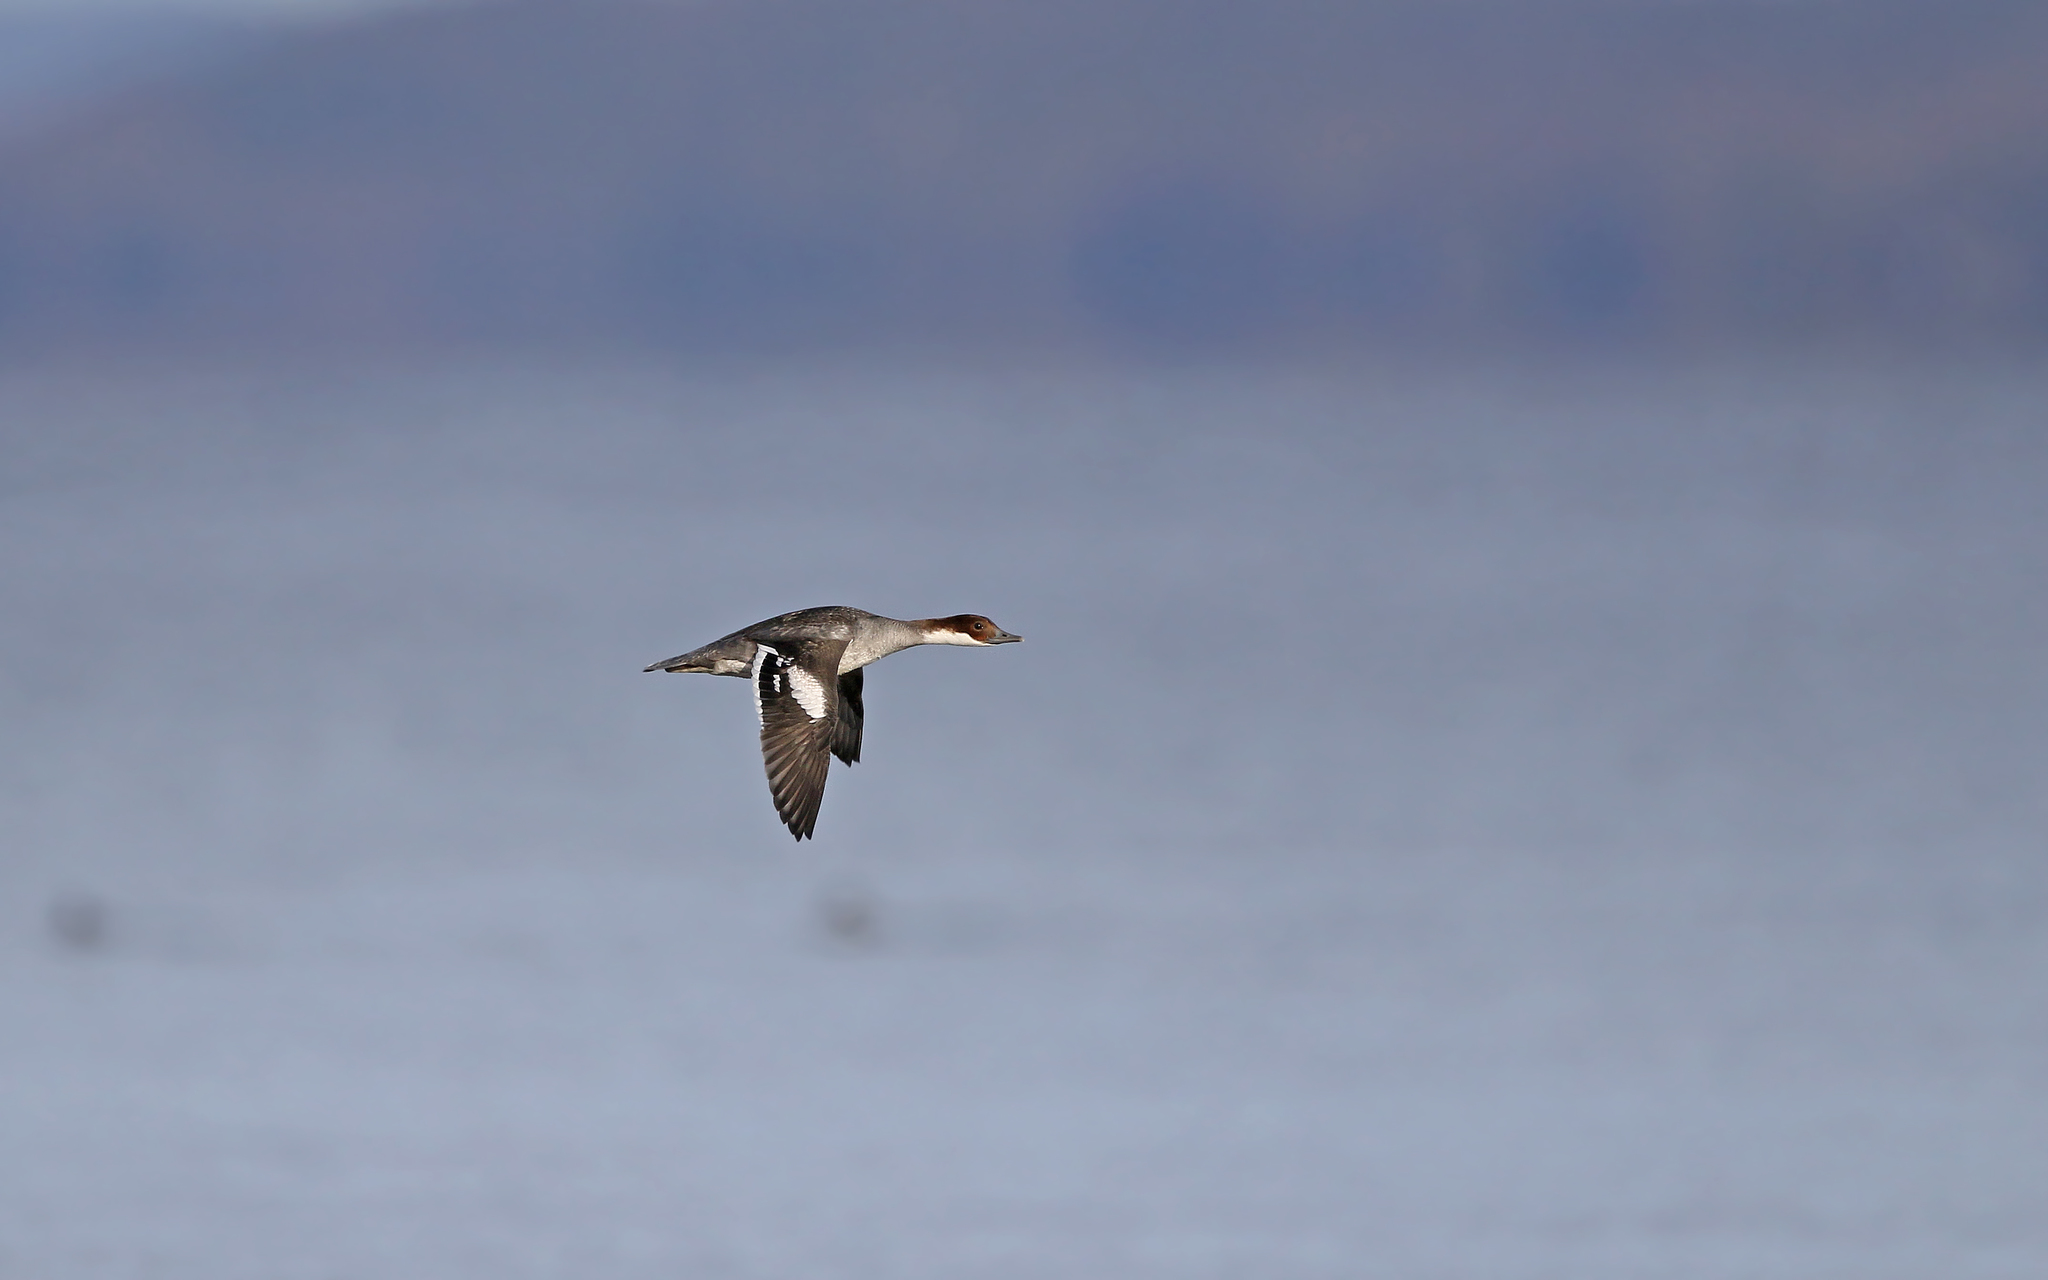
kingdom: Animalia
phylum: Chordata
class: Aves
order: Anseriformes
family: Anatidae
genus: Mergellus
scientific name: Mergellus albellus
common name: Smew
